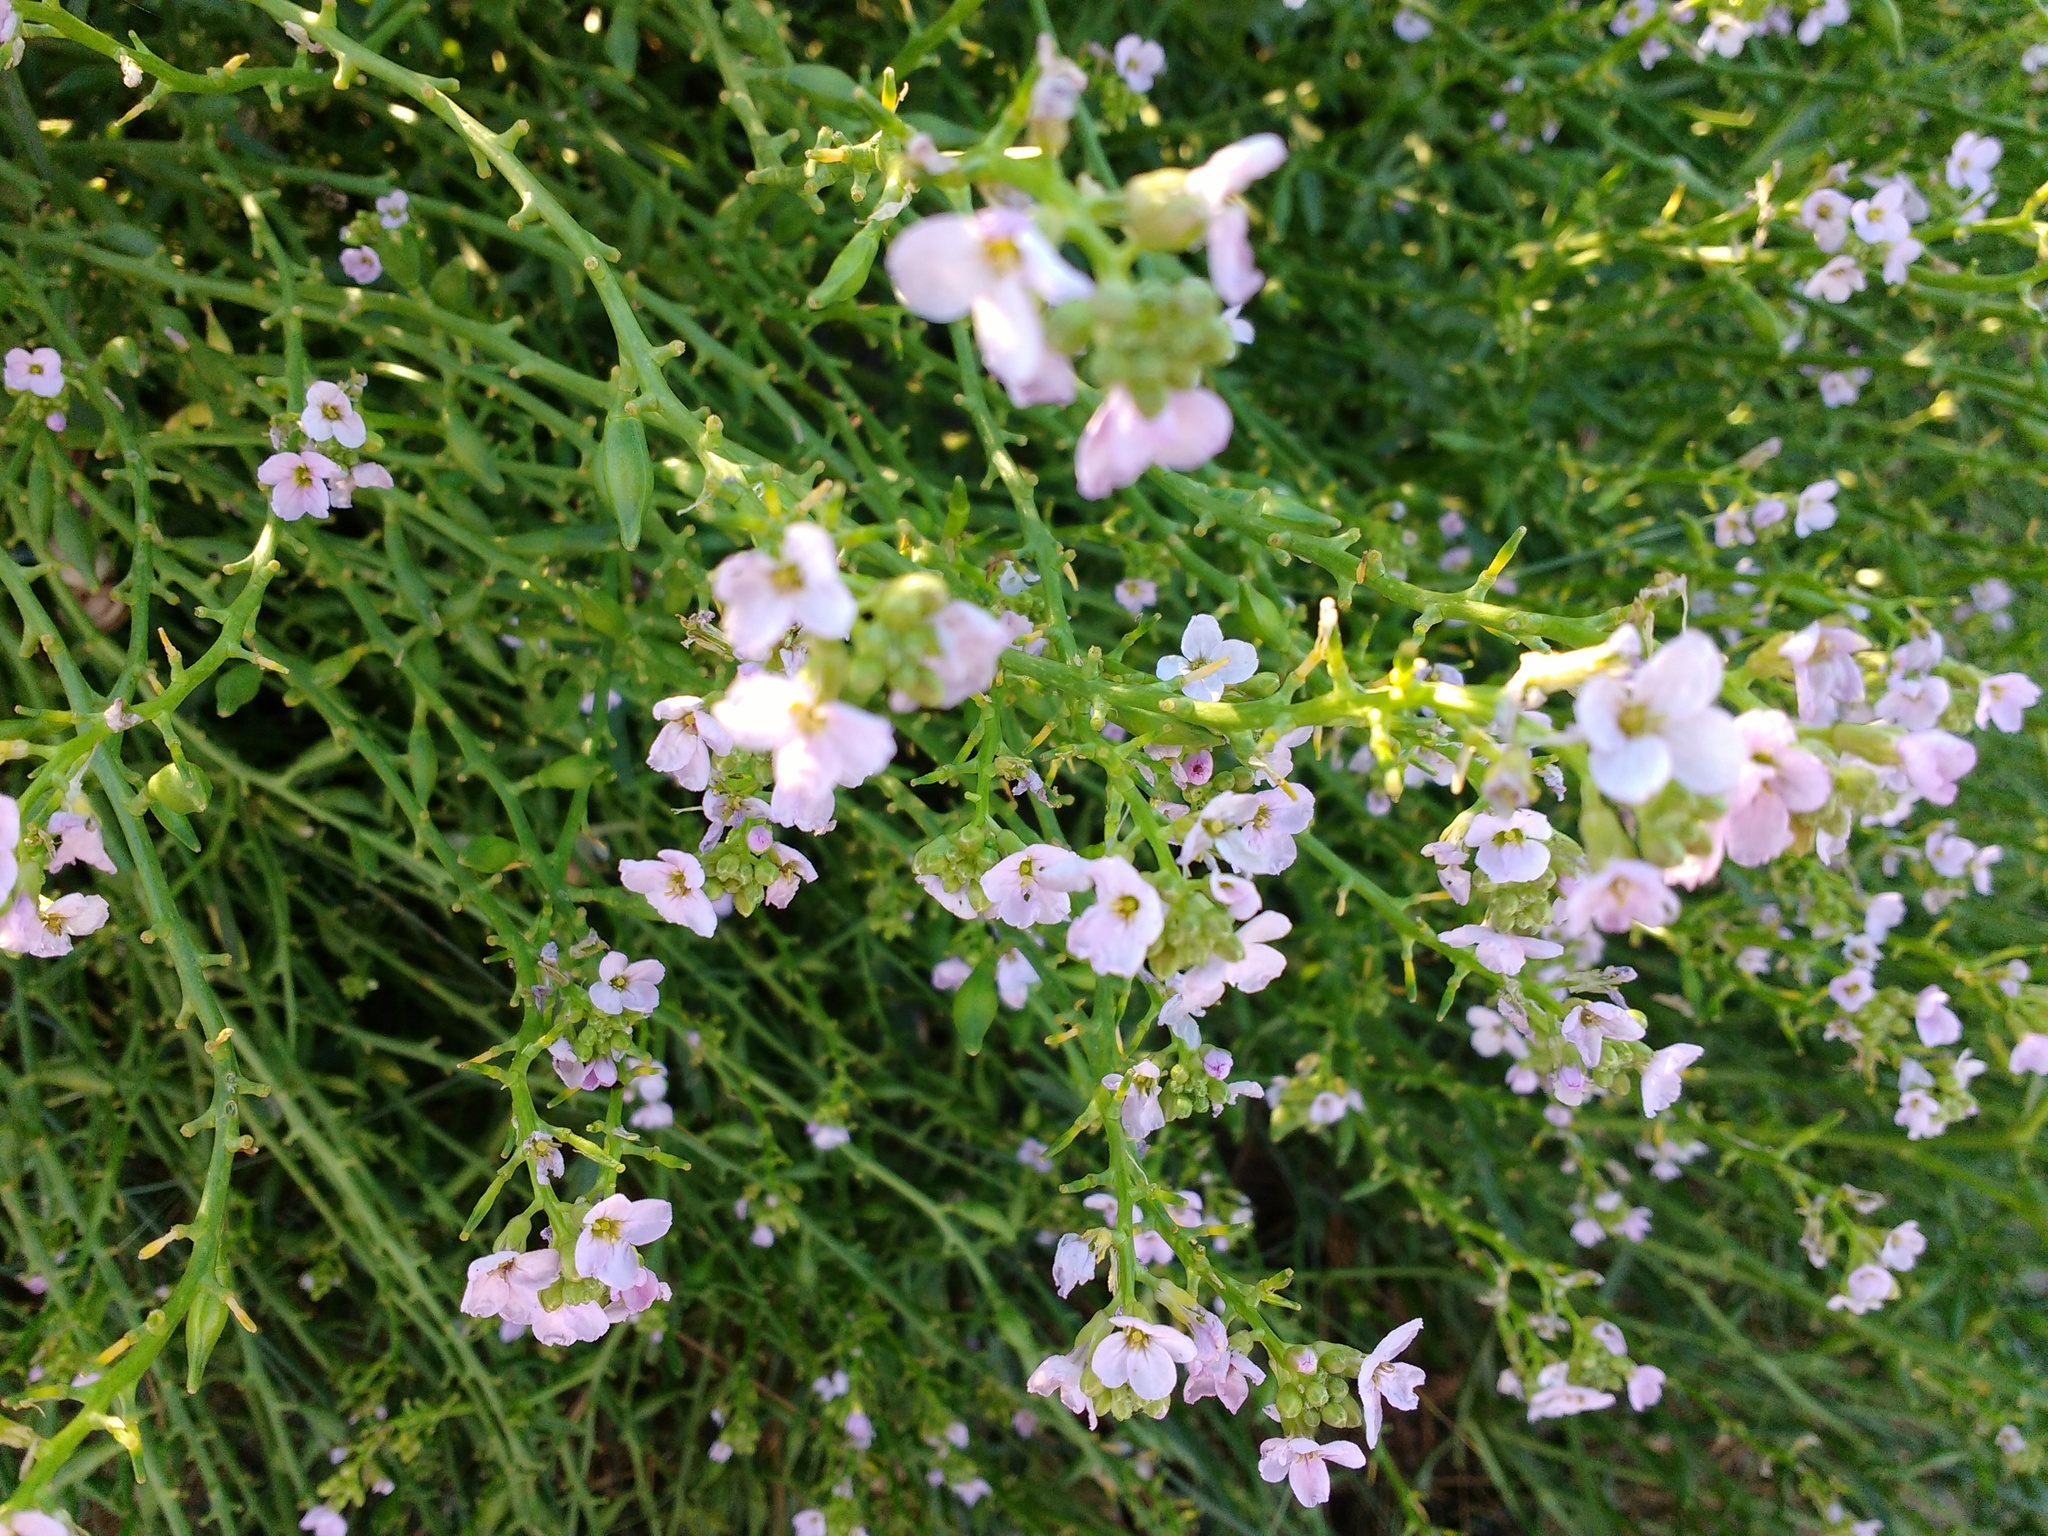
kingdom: Plantae
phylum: Tracheophyta
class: Magnoliopsida
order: Brassicales
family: Brassicaceae
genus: Cakile
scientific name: Cakile maritima
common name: Sea rocket
